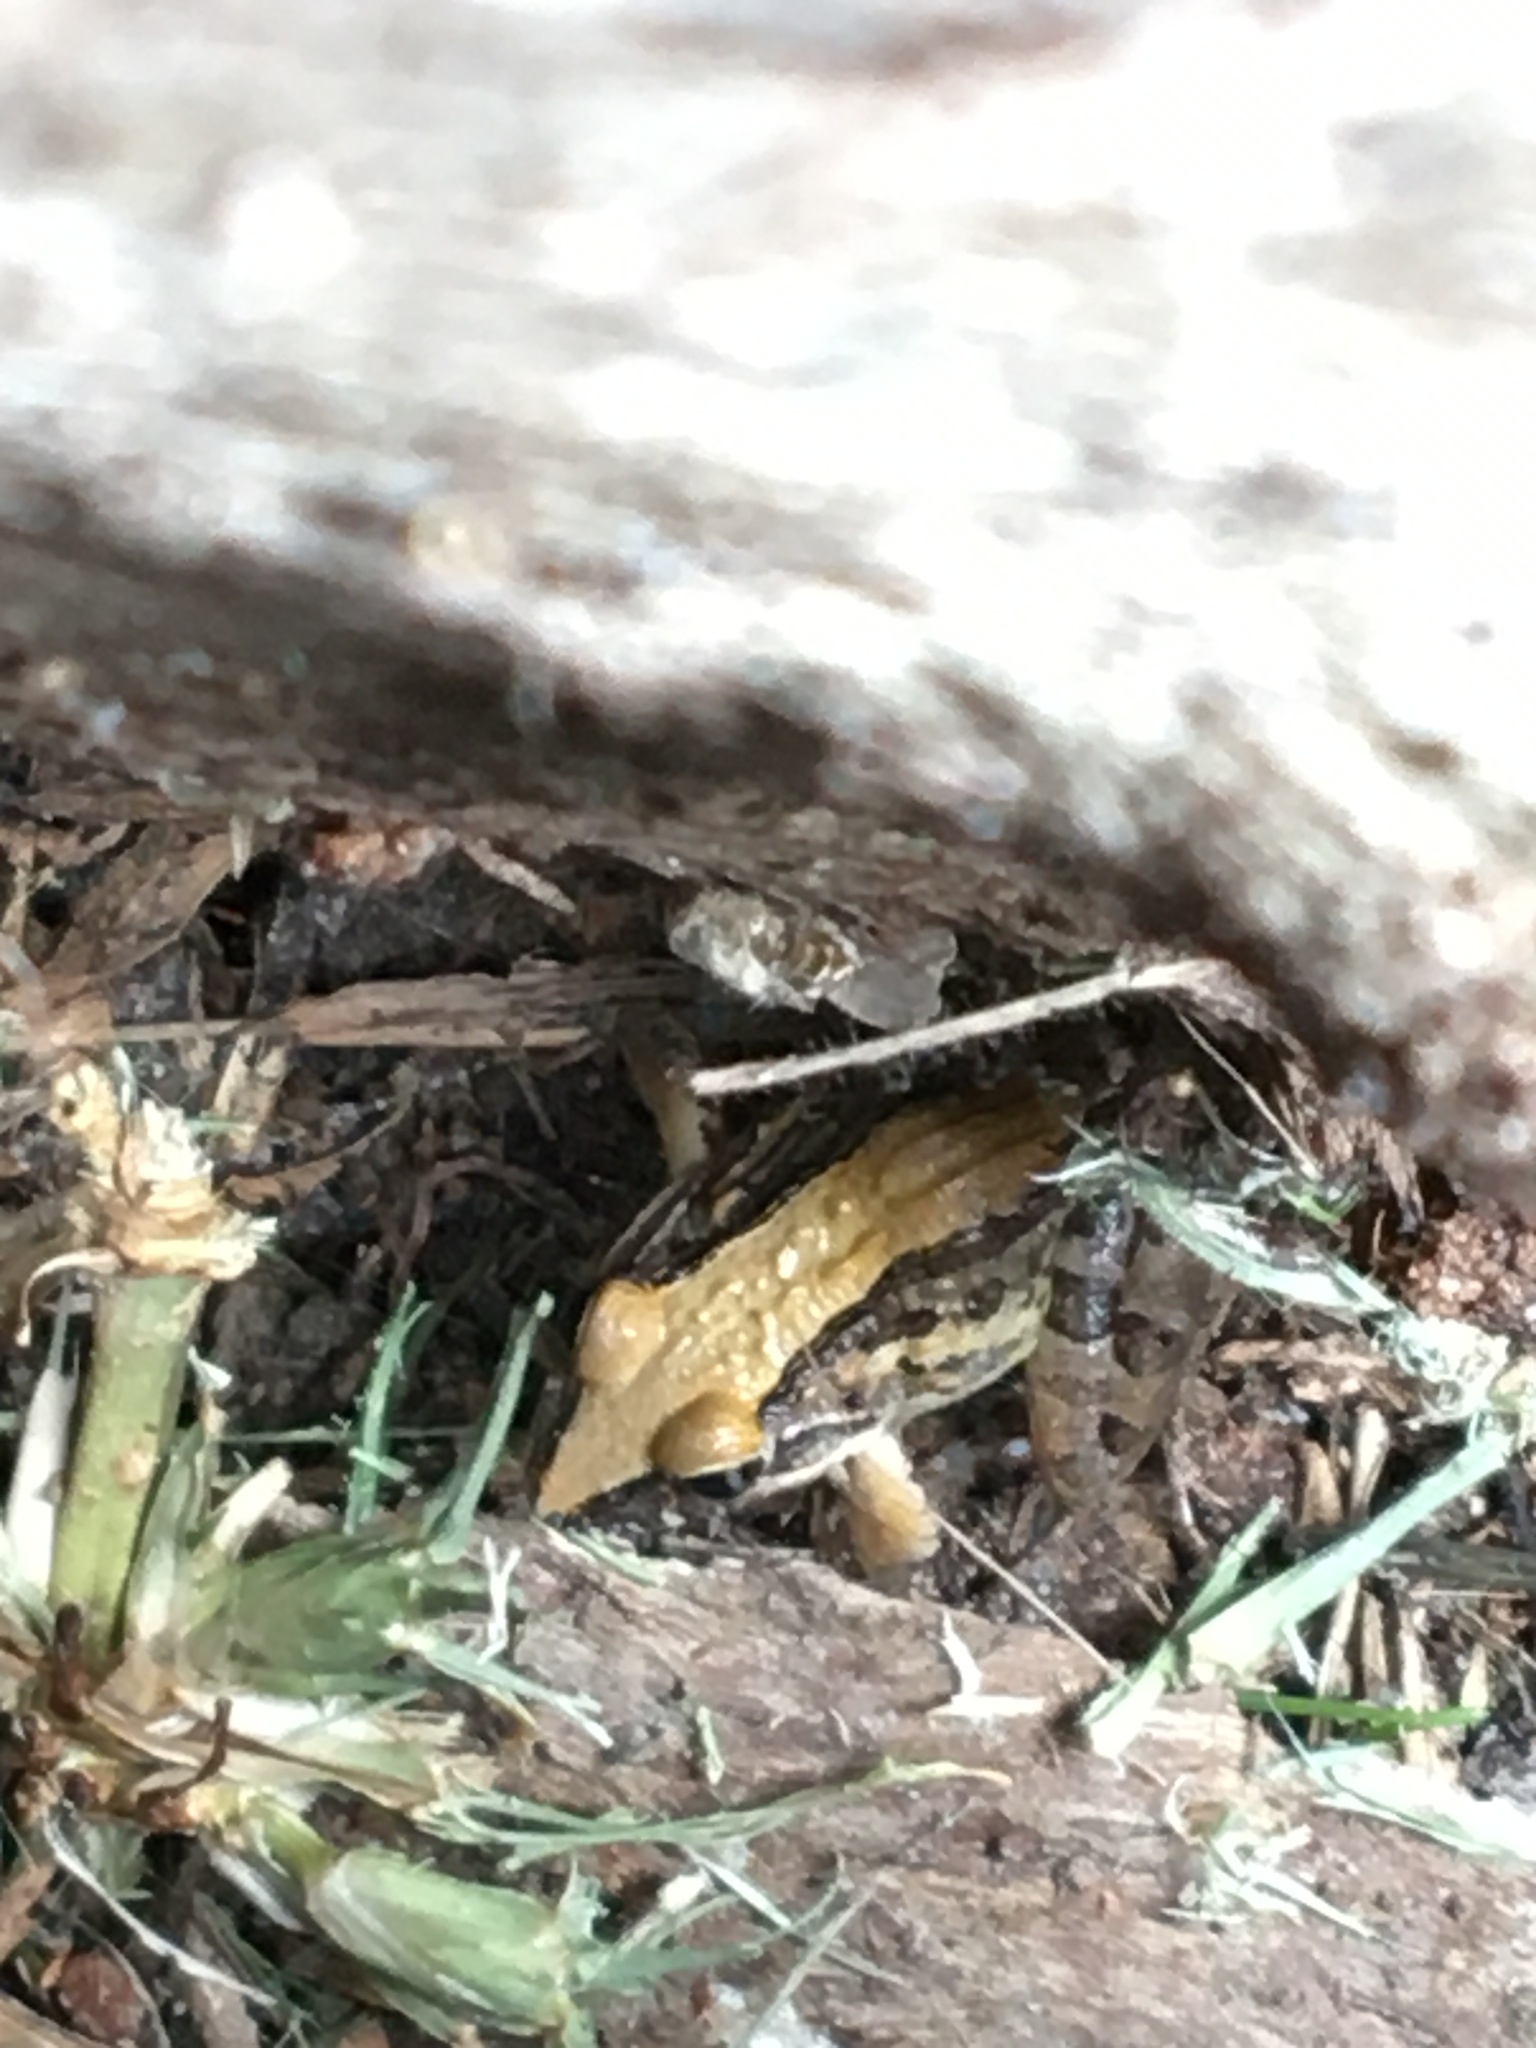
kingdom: Animalia
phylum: Chordata
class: Amphibia
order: Anura
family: Pyxicephalidae
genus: Strongylopus
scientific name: Strongylopus grayii
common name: Gray's stream frog
